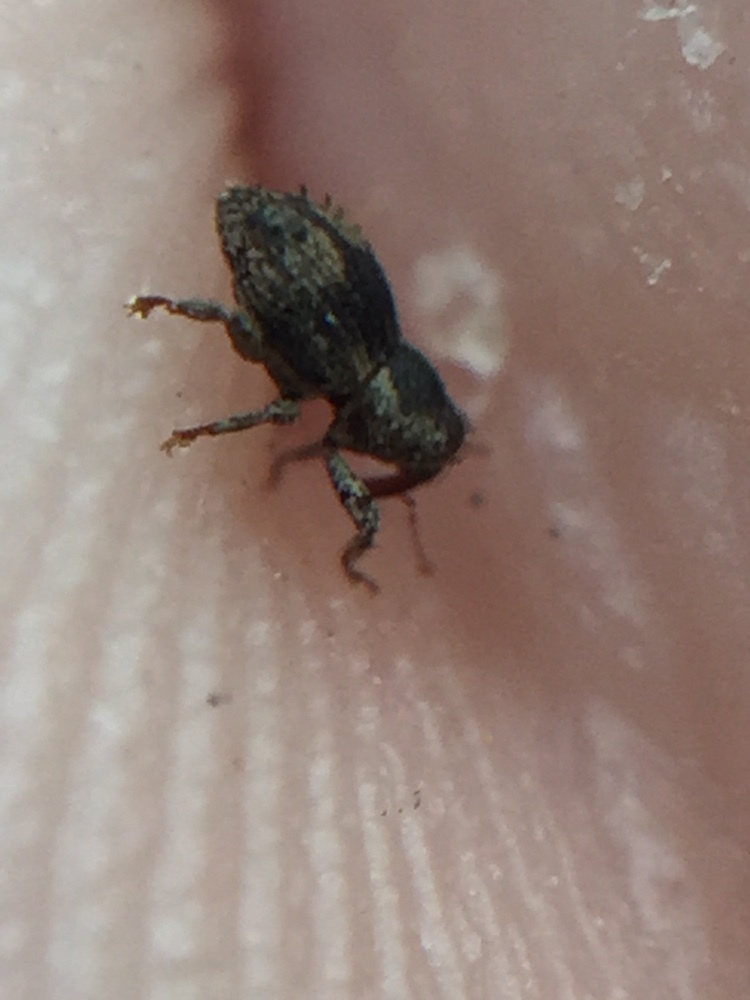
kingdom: Animalia
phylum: Arthropoda
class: Insecta
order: Coleoptera
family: Curculionidae
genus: Notacalles
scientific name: Notacalles
